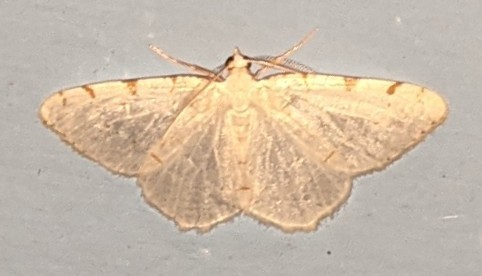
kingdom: Animalia
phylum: Arthropoda
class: Insecta
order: Lepidoptera
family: Geometridae
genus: Macaria
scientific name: Macaria pustularia
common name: Lesser maple spanworm moth
